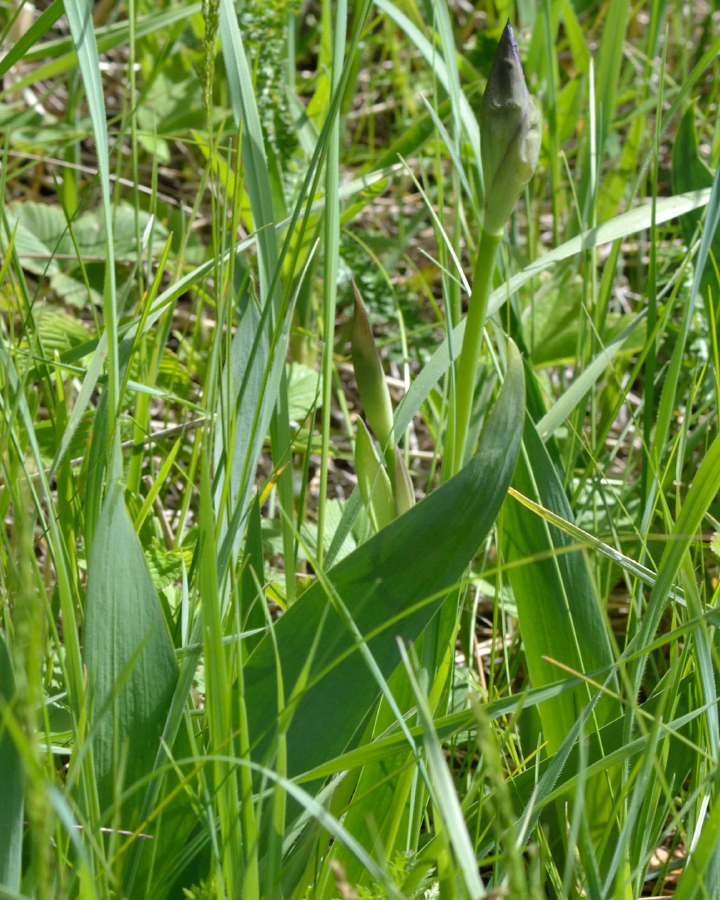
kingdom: Plantae
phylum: Tracheophyta
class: Liliopsida
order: Asparagales
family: Iridaceae
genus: Iris
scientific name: Iris aphylla
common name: Stool iris
